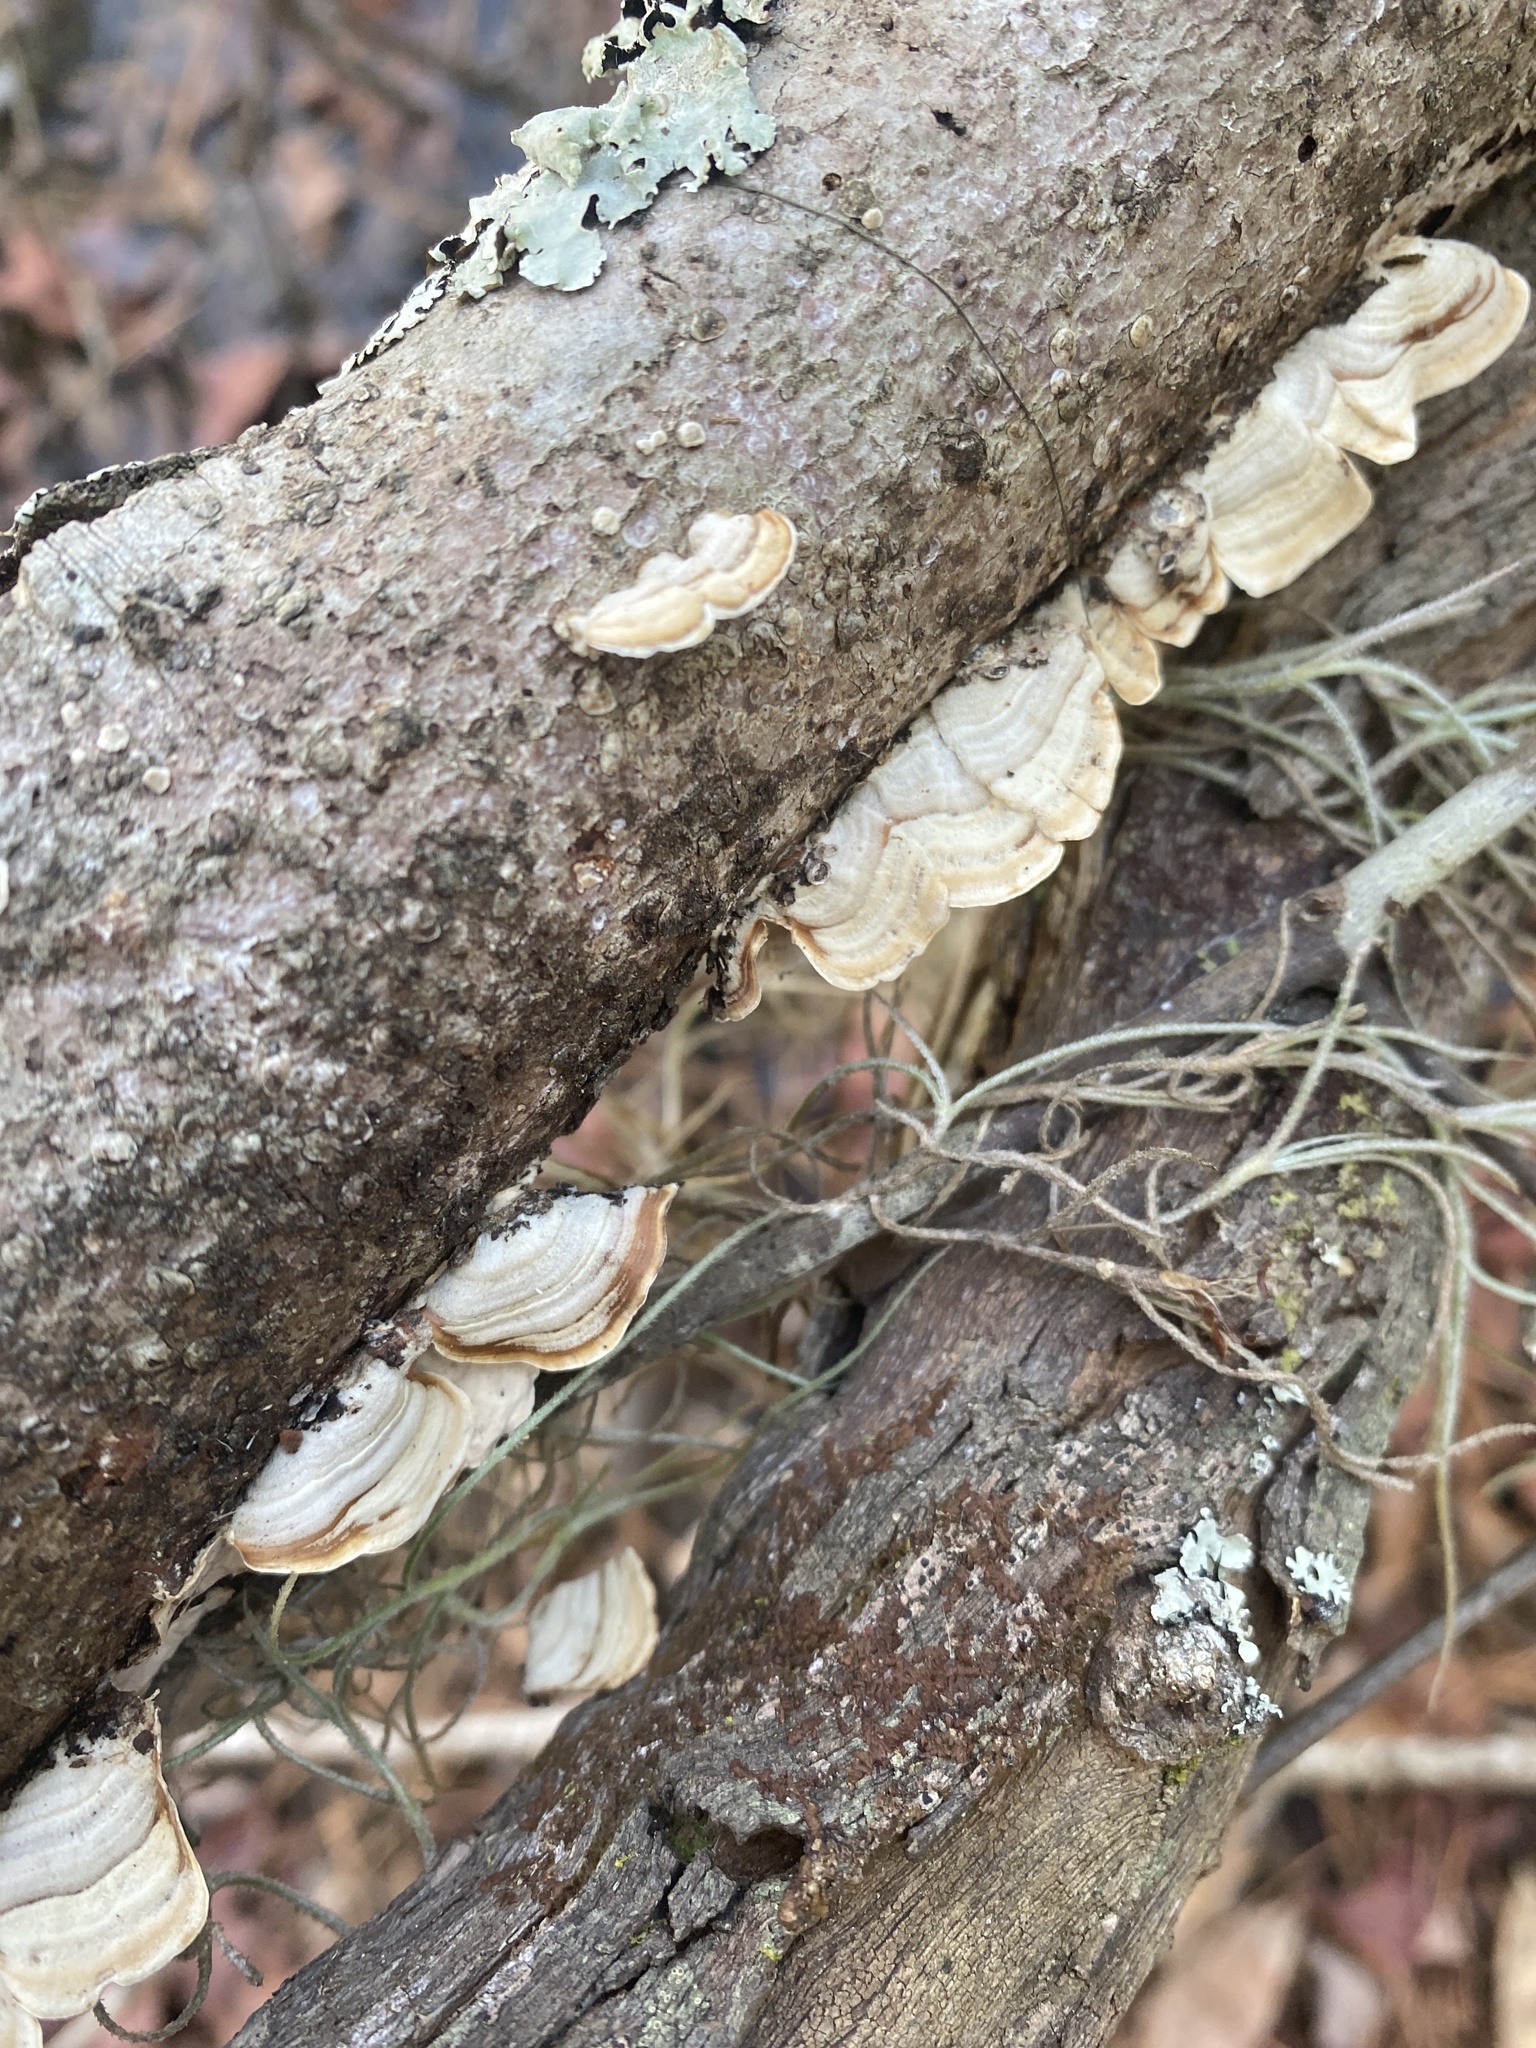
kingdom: Fungi
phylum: Basidiomycota
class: Agaricomycetes
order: Russulales
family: Stereaceae
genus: Stereum
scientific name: Stereum lobatum
